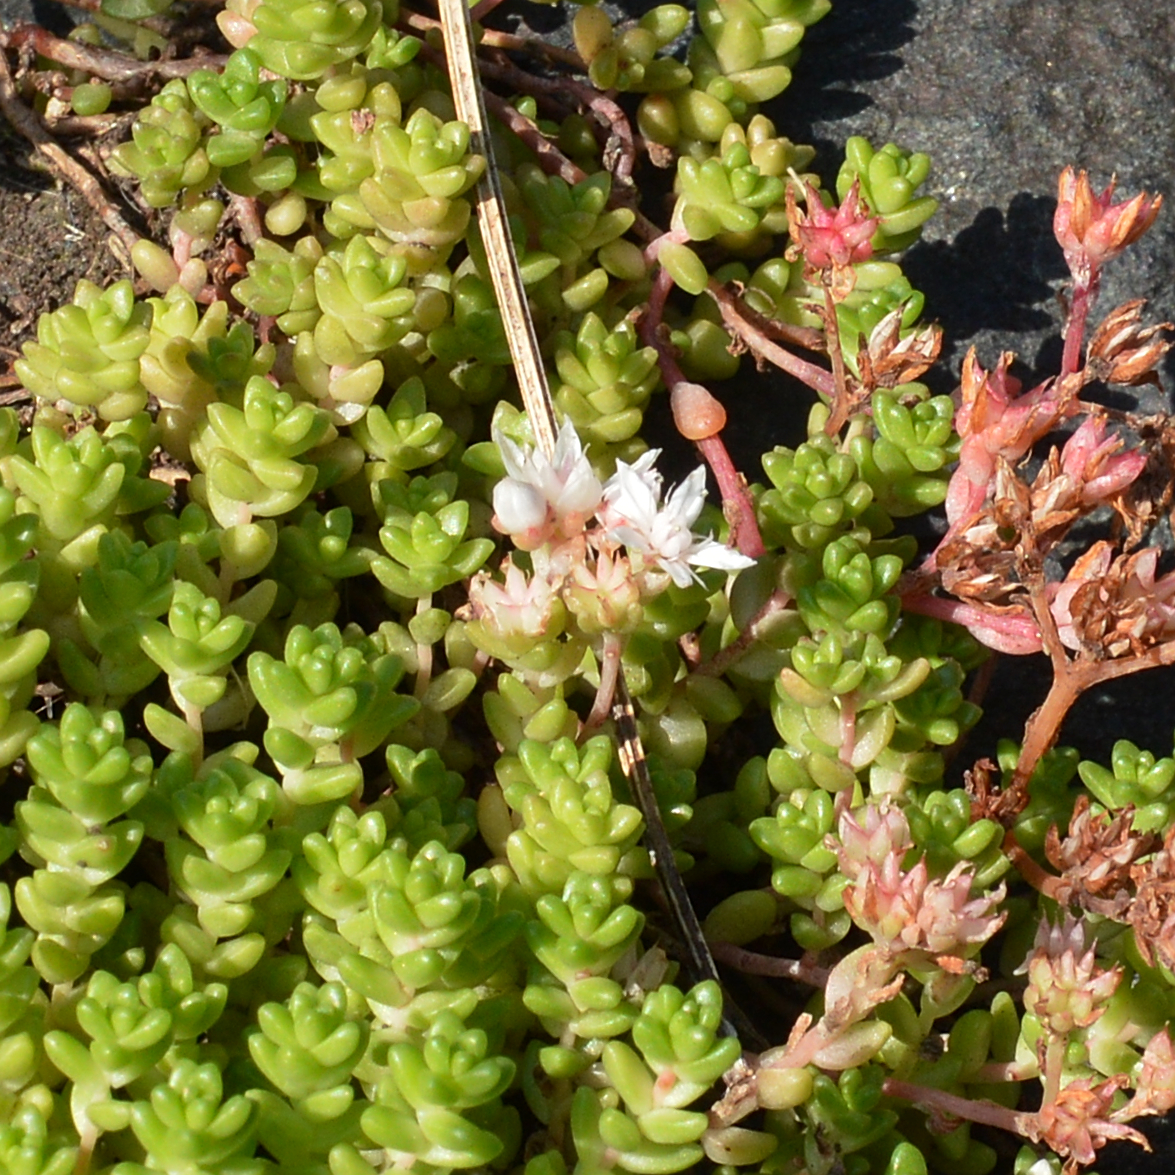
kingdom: Plantae
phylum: Tracheophyta
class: Magnoliopsida
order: Saxifragales
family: Crassulaceae
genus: Sedum
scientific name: Sedum anglicum
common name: English stonecrop
